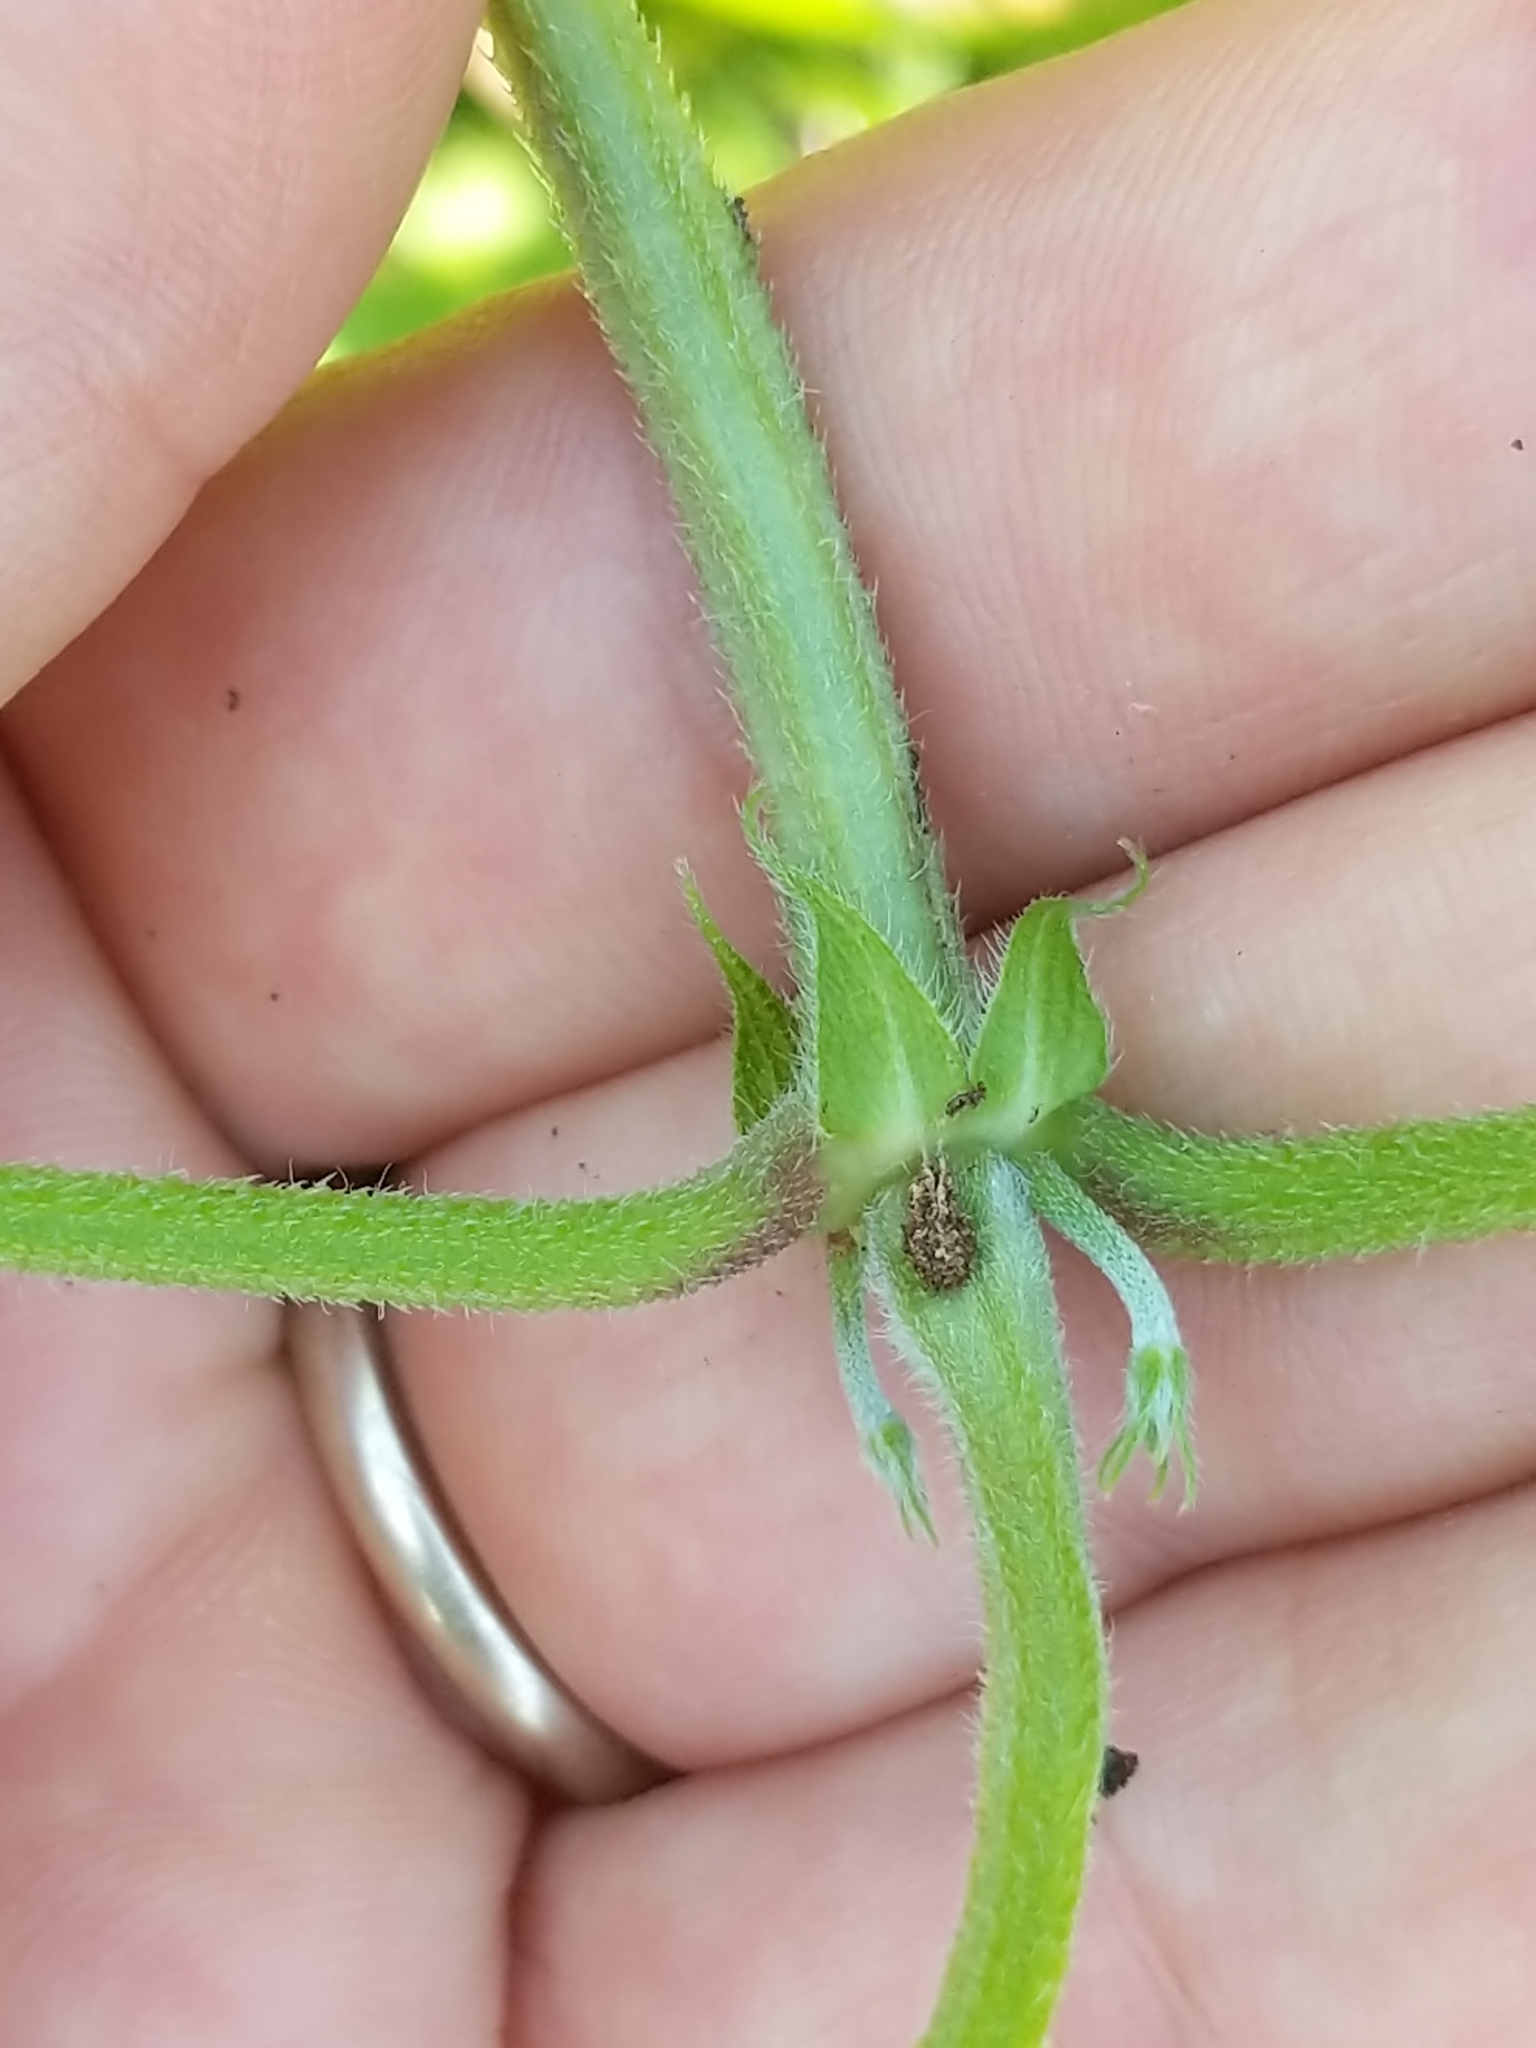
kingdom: Plantae
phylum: Tracheophyta
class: Magnoliopsida
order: Rosales
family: Cannabaceae
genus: Humulus
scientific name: Humulus scandens
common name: Japanese hop
